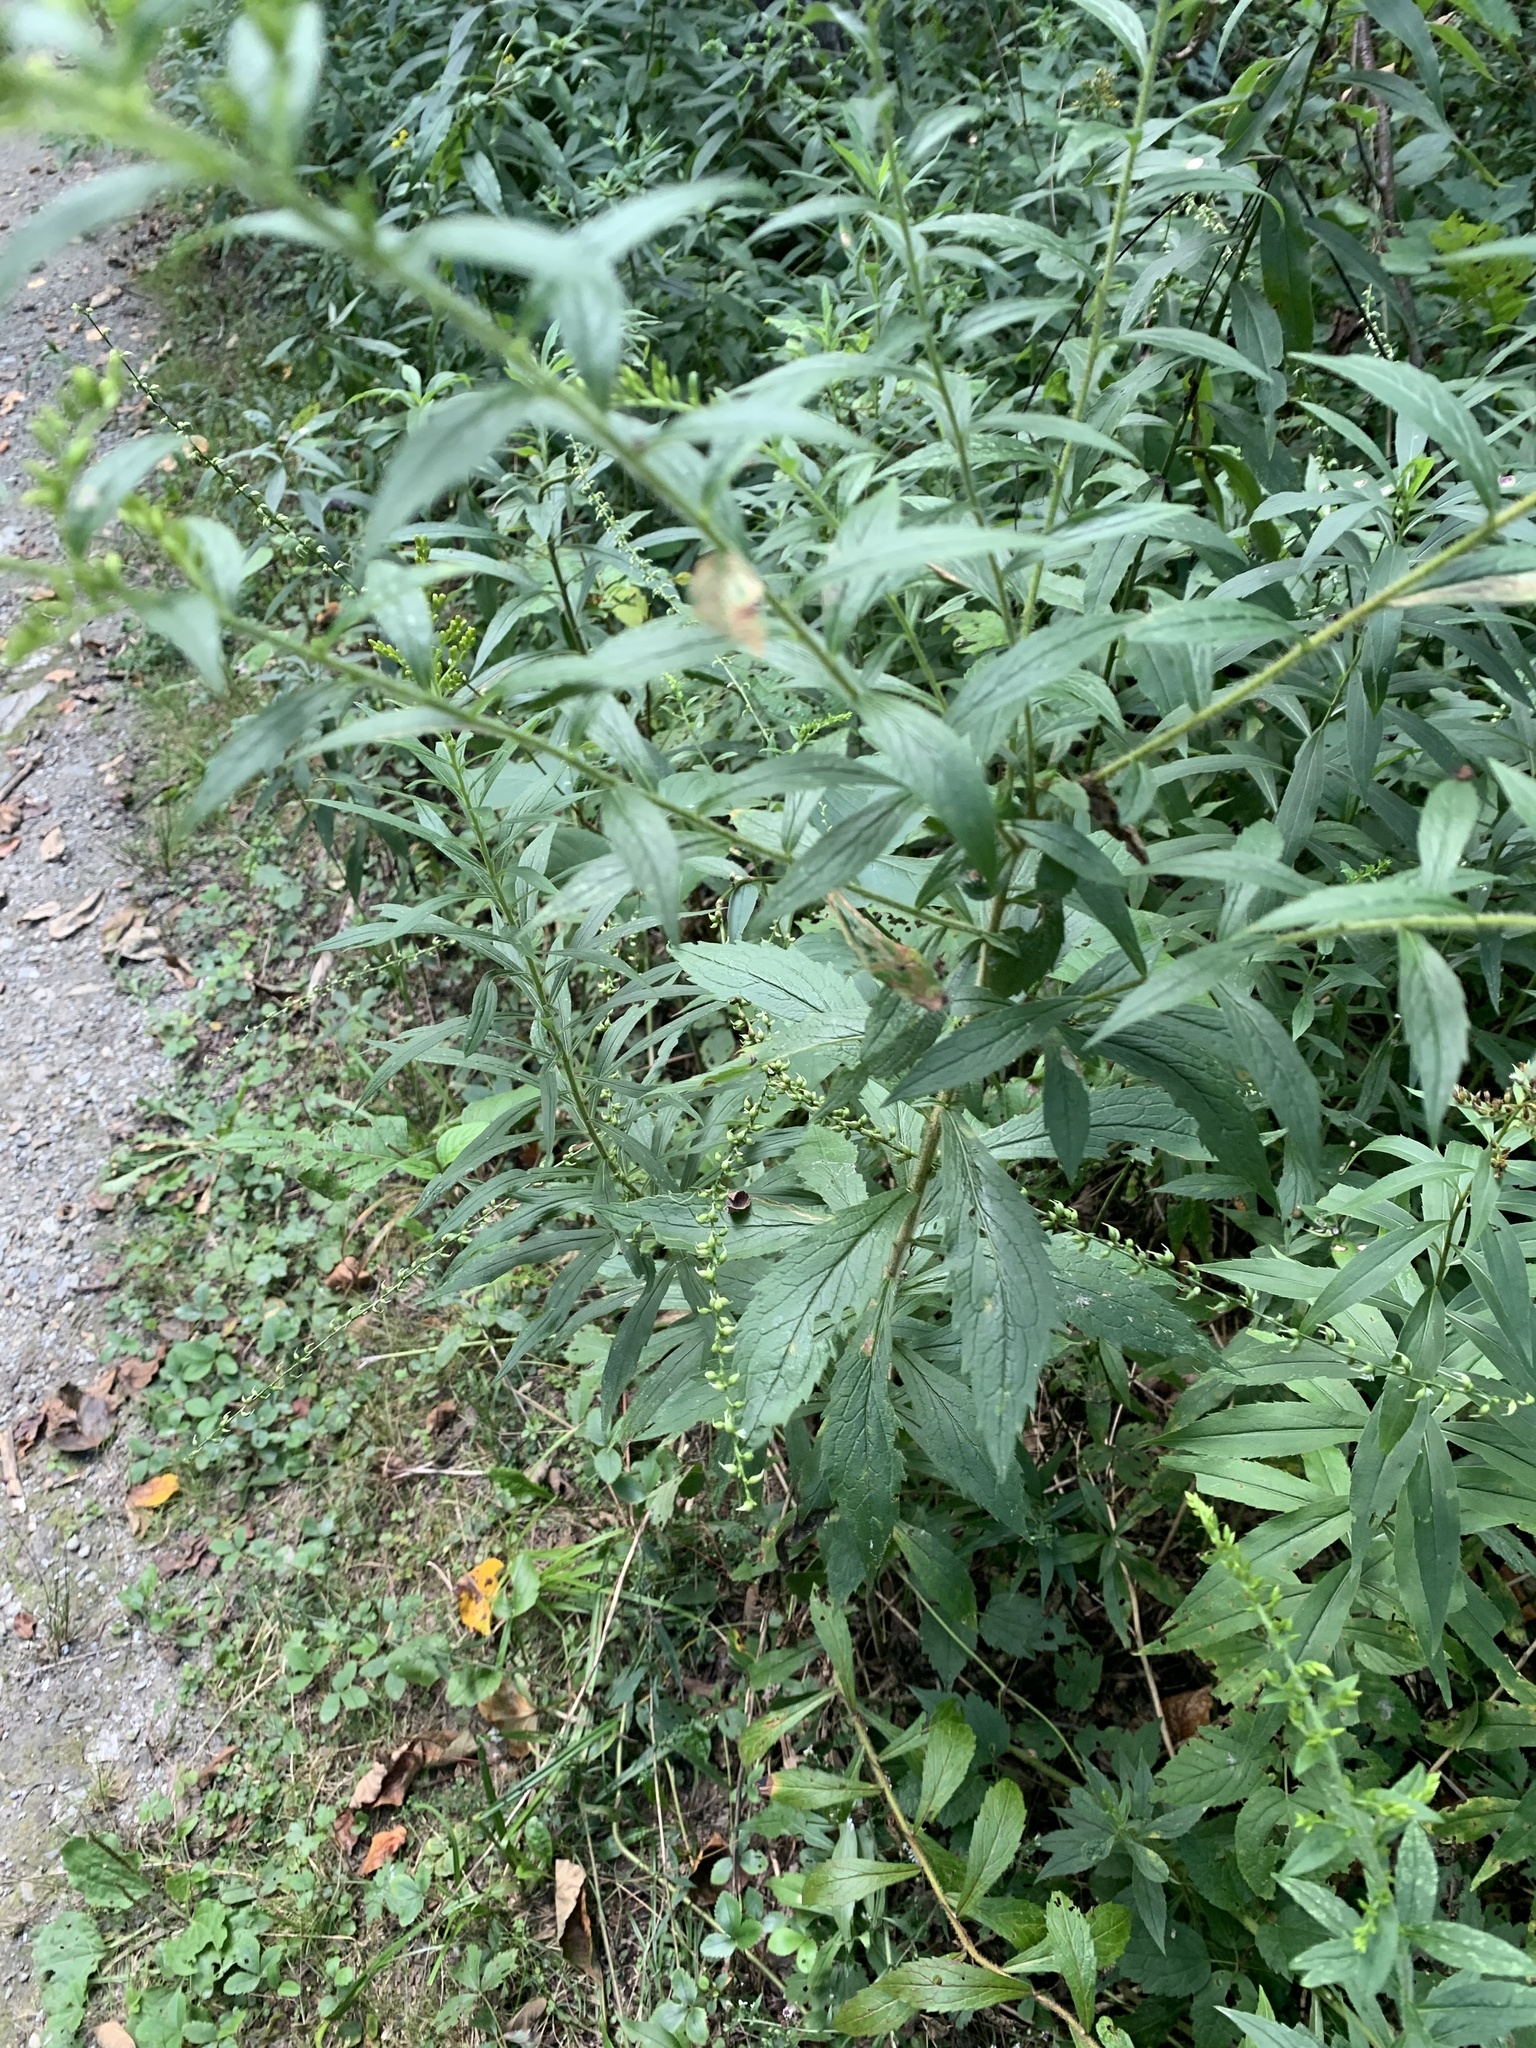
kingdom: Plantae
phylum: Tracheophyta
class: Magnoliopsida
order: Asterales
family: Asteraceae
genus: Solidago
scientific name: Solidago rugosa
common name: Rough-stemmed goldenrod
